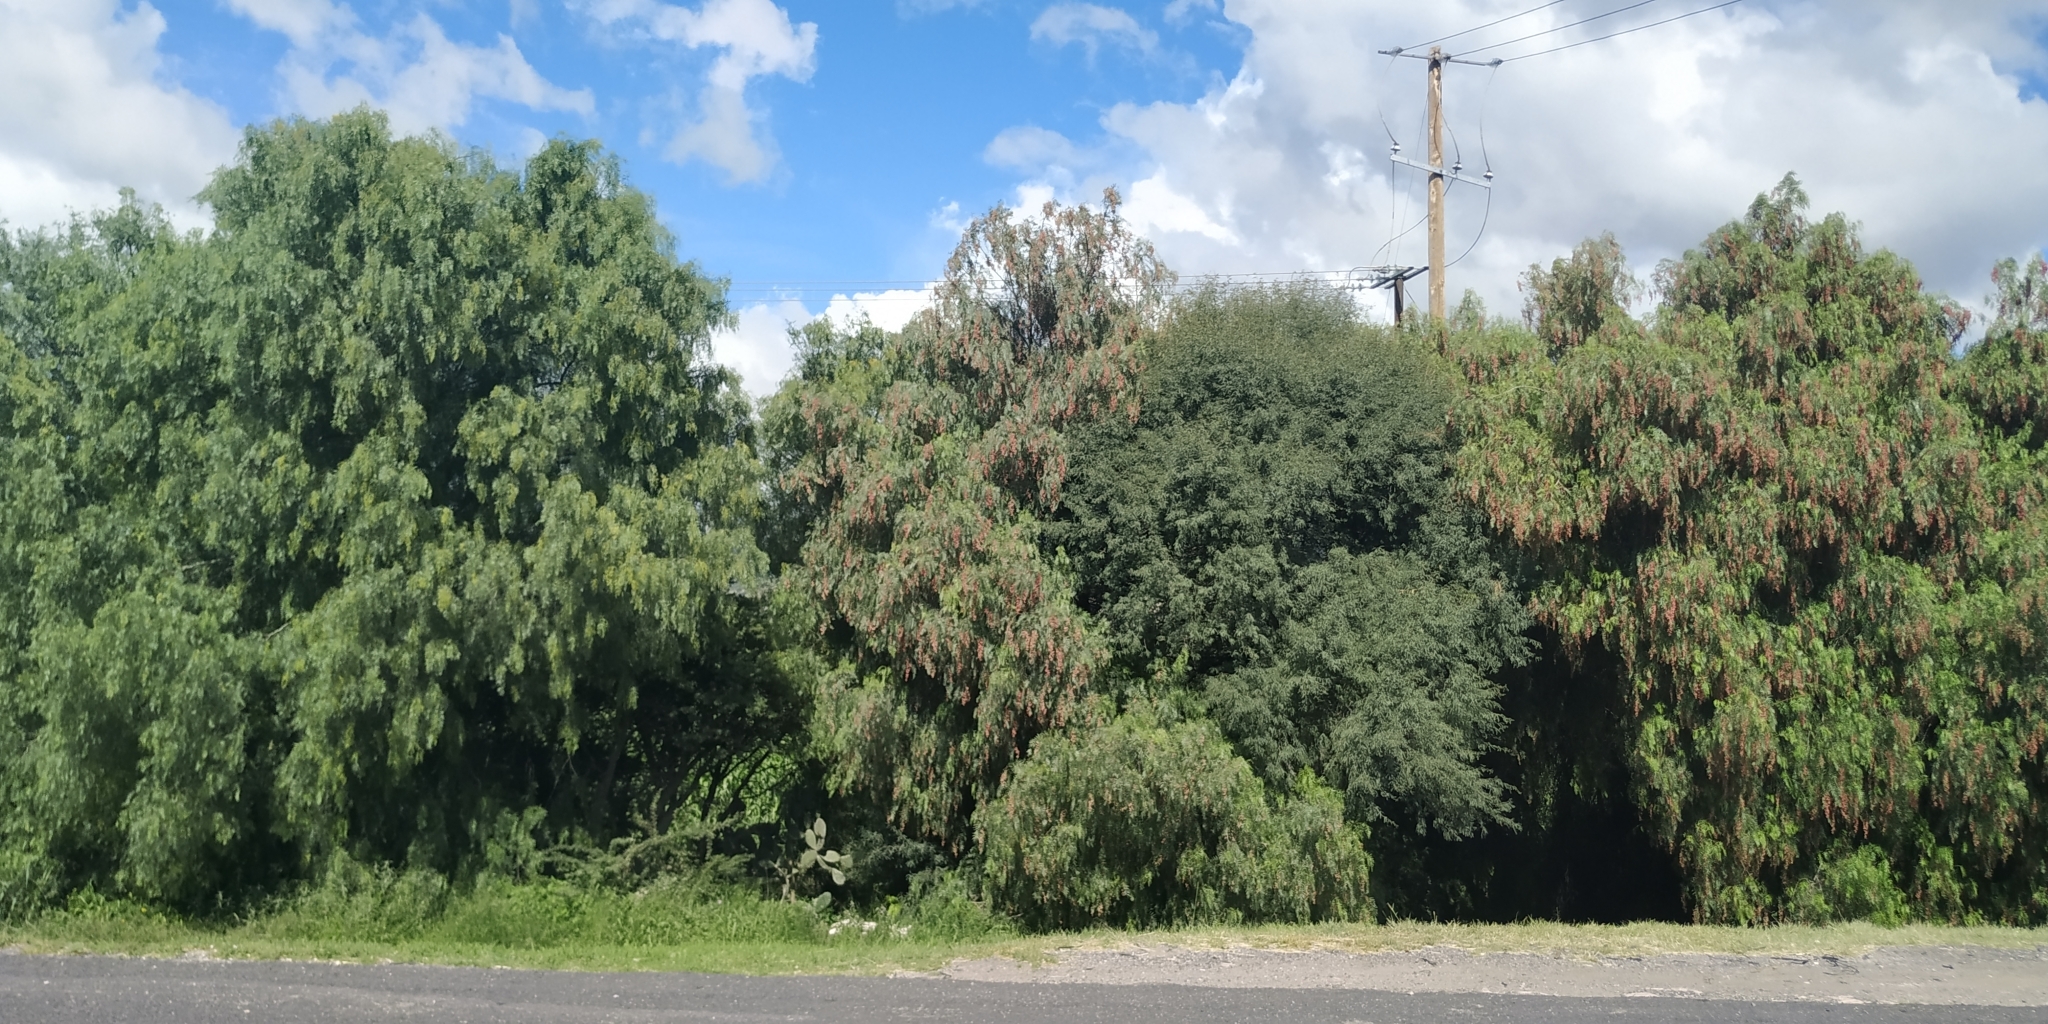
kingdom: Plantae
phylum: Tracheophyta
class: Magnoliopsida
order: Sapindales
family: Anacardiaceae
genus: Schinus
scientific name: Schinus molle
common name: Peruvian peppertree
